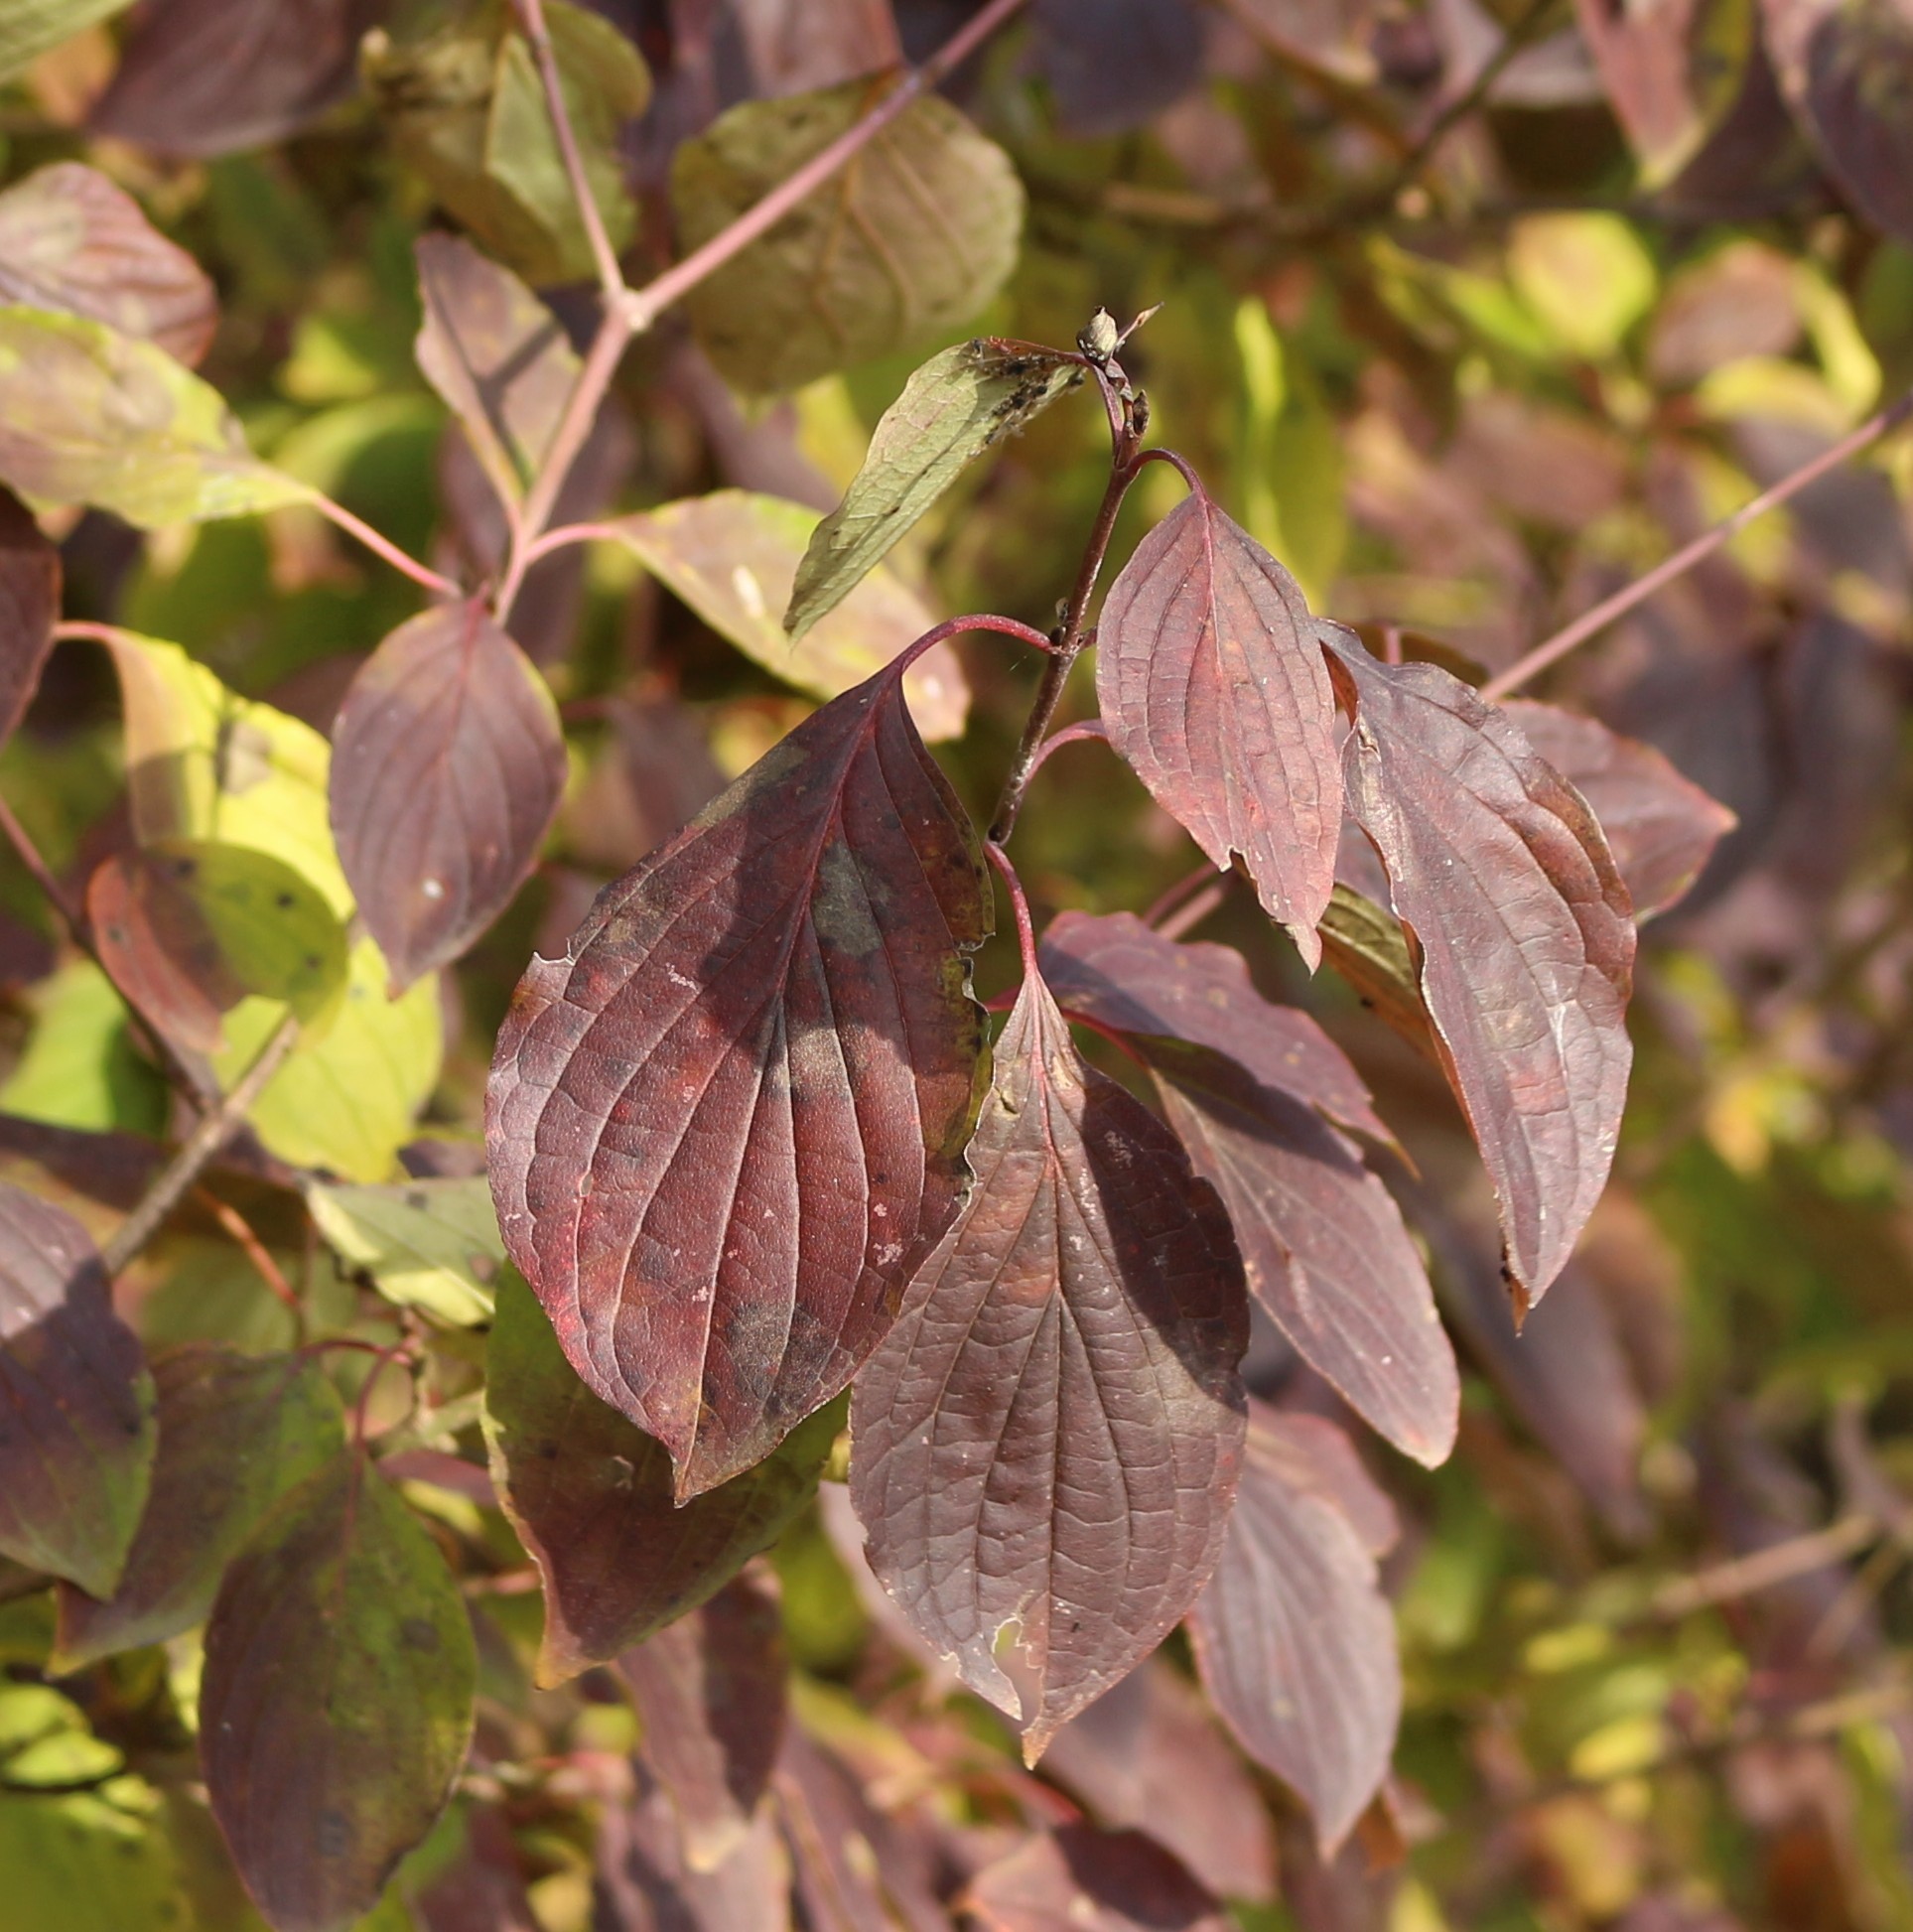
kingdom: Plantae
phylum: Tracheophyta
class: Magnoliopsida
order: Cornales
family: Cornaceae
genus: Cornus
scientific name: Cornus sanguinea
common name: Dogwood
